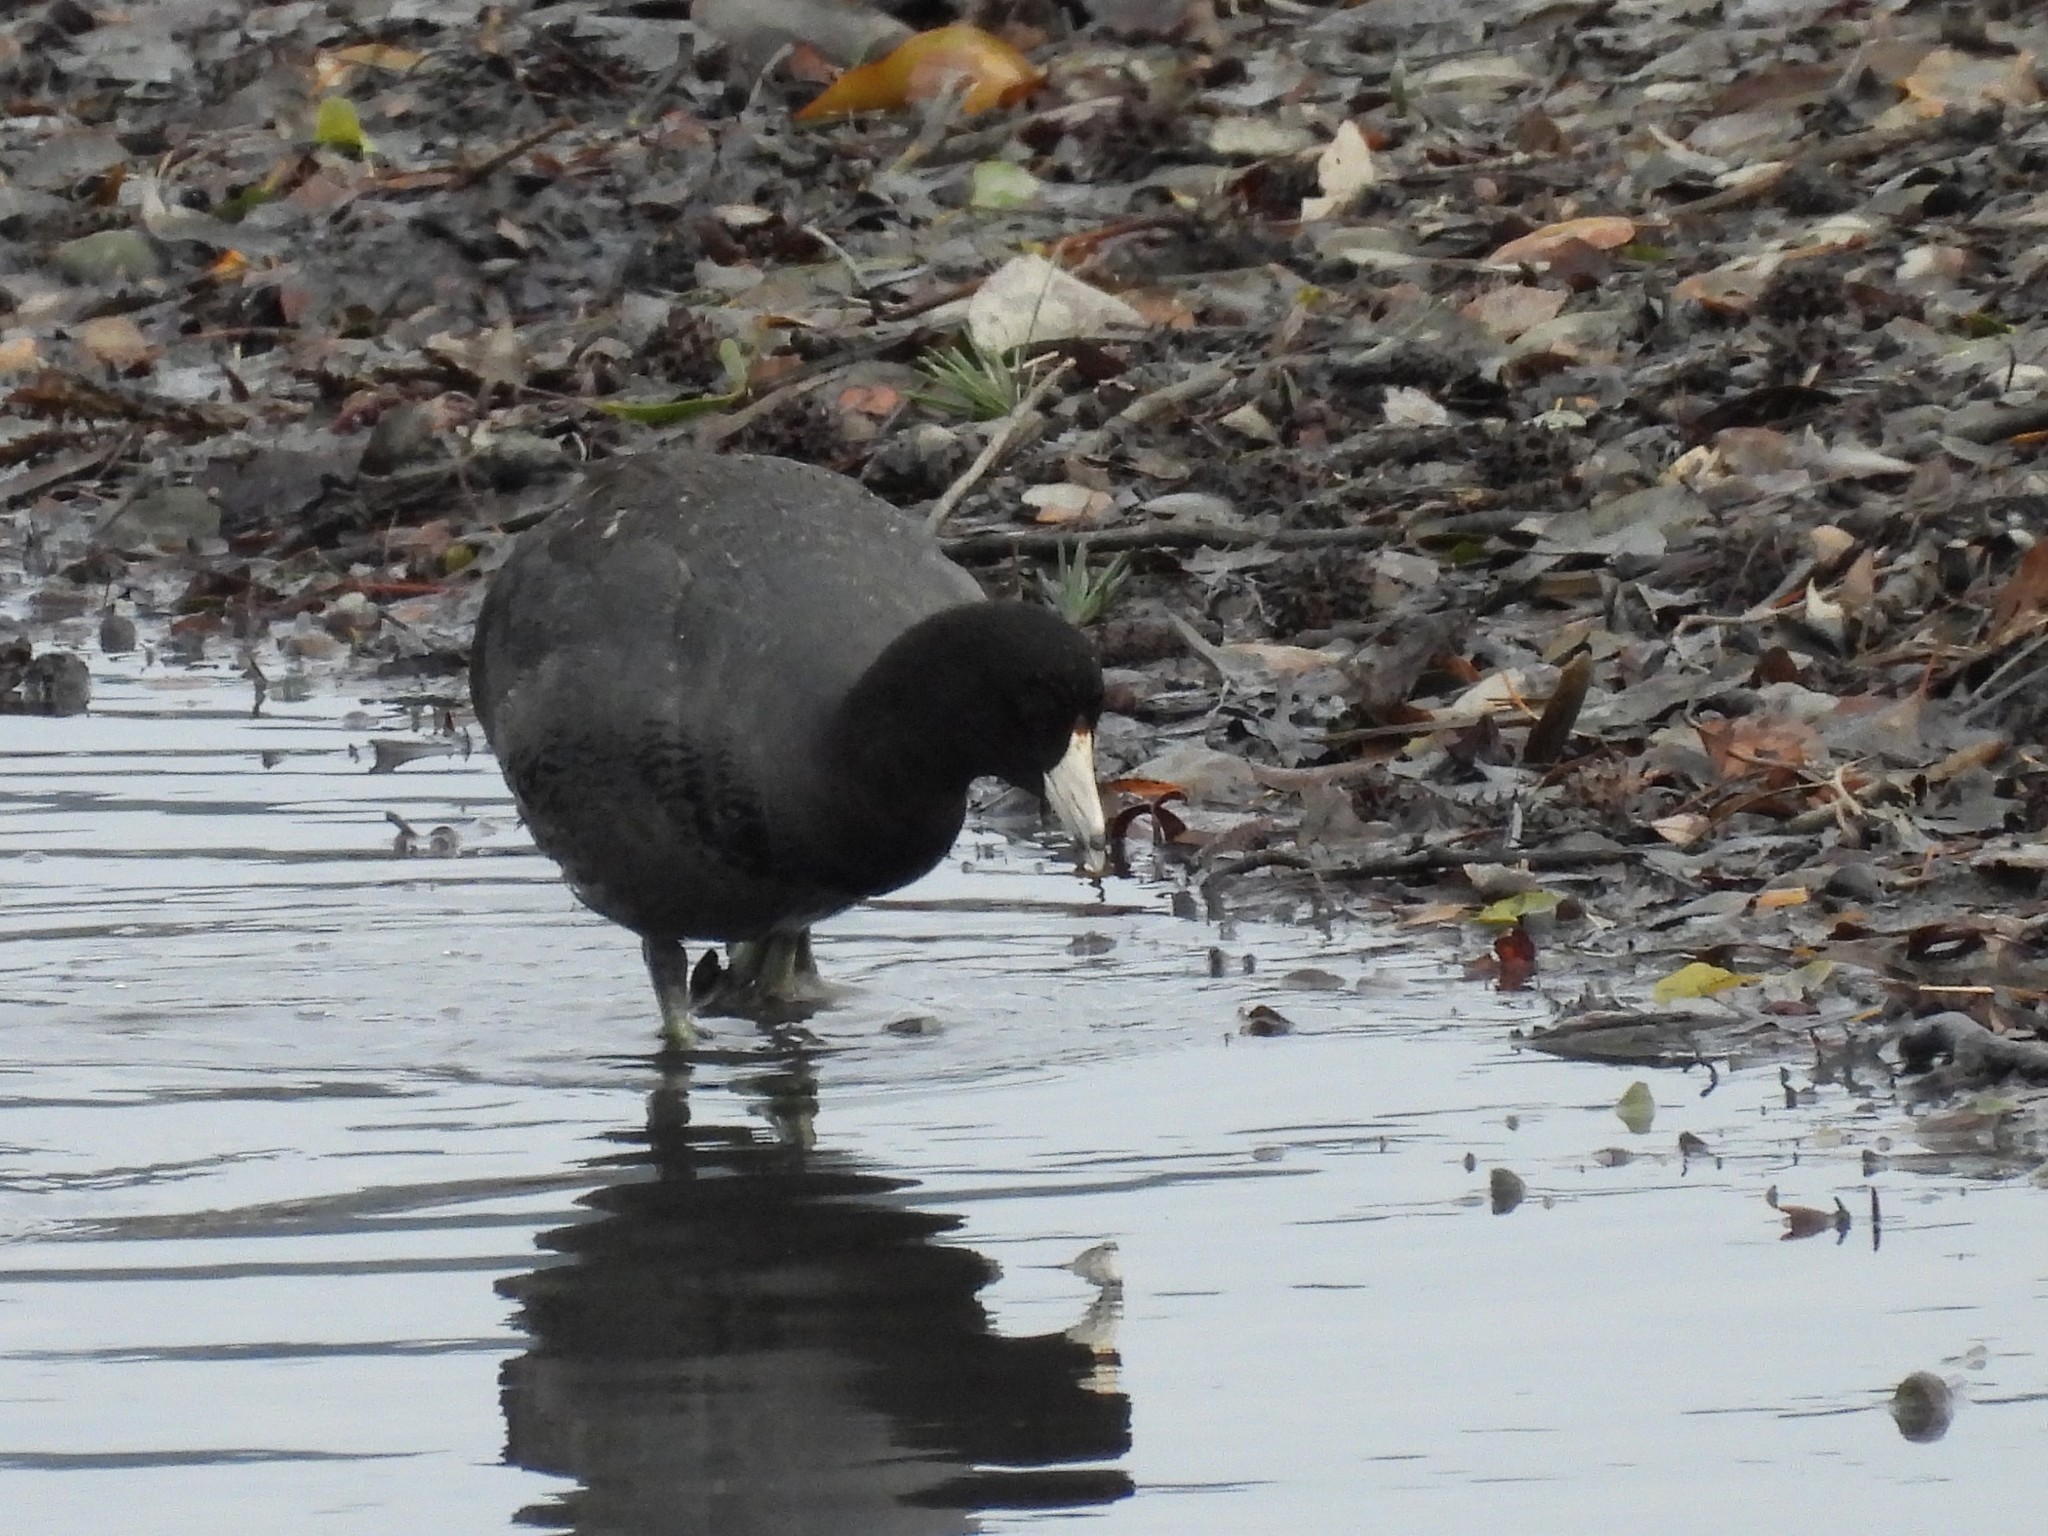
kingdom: Animalia
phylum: Chordata
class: Aves
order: Gruiformes
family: Rallidae
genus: Fulica
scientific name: Fulica americana
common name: American coot
